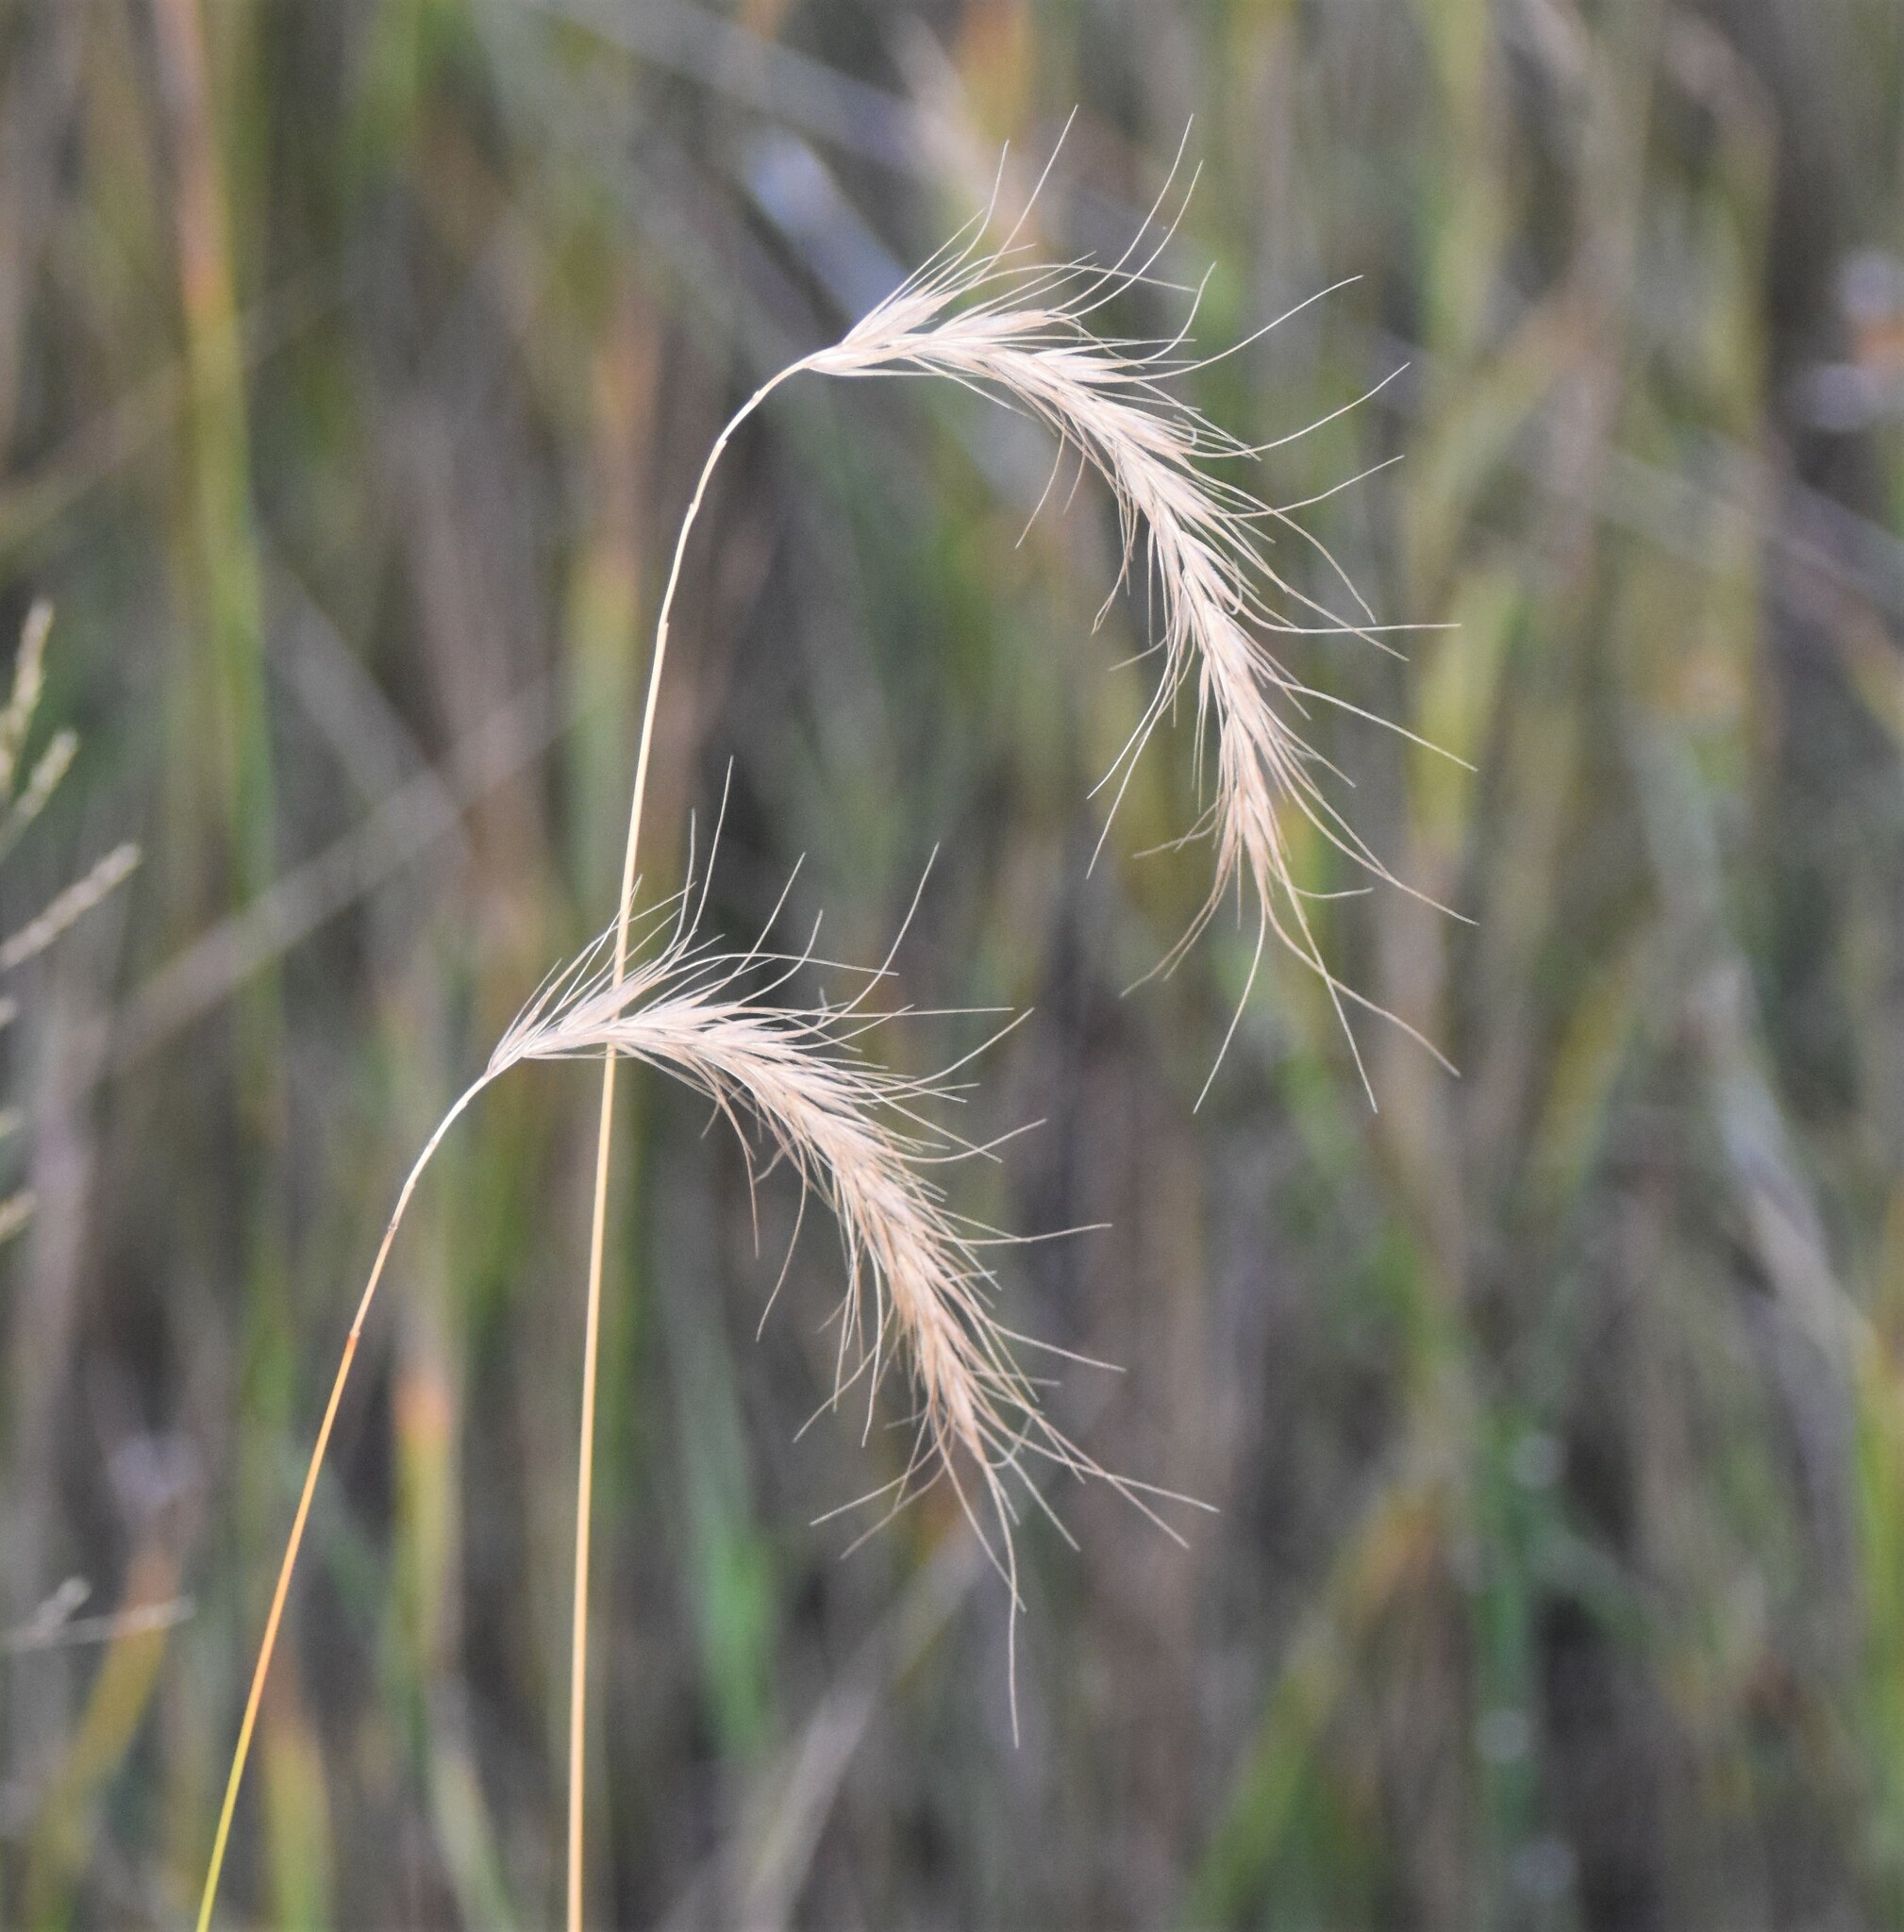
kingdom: Plantae
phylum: Tracheophyta
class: Liliopsida
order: Poales
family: Poaceae
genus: Elymus
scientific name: Elymus canadensis
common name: Canada wild rye
